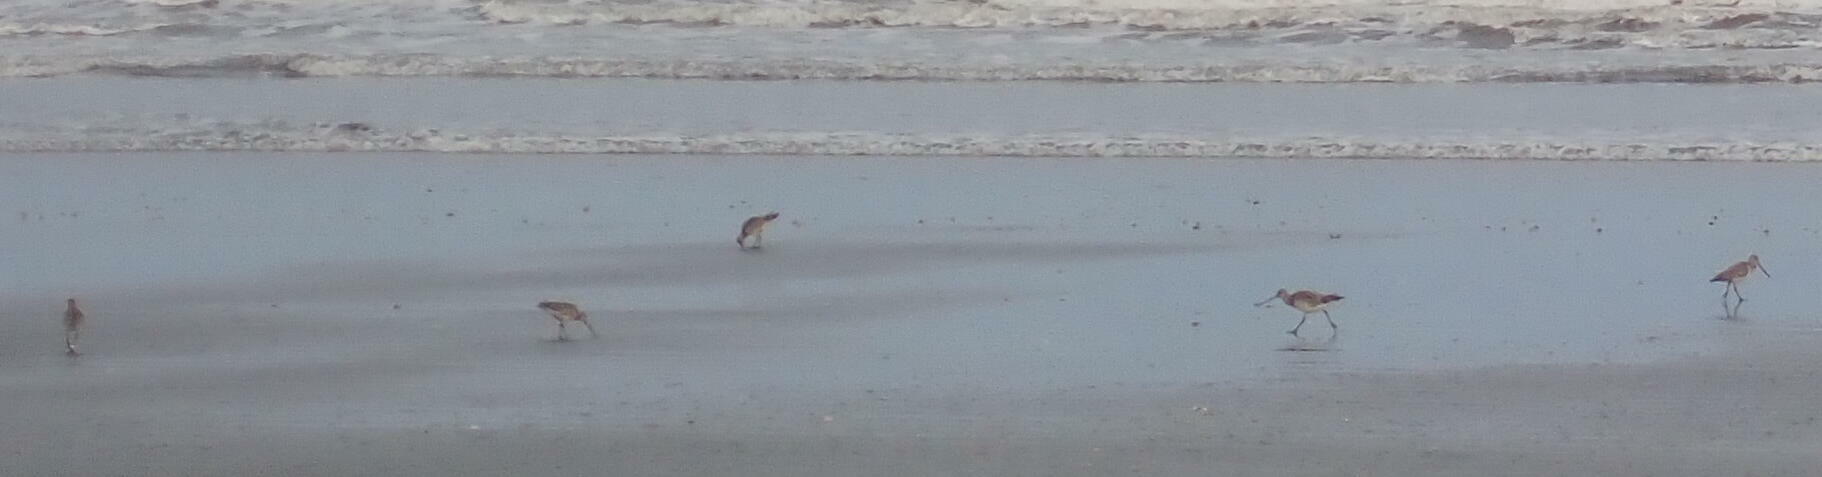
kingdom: Animalia
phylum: Chordata
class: Aves
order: Charadriiformes
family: Scolopacidae
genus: Limosa
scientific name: Limosa lapponica
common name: Bar-tailed godwit
